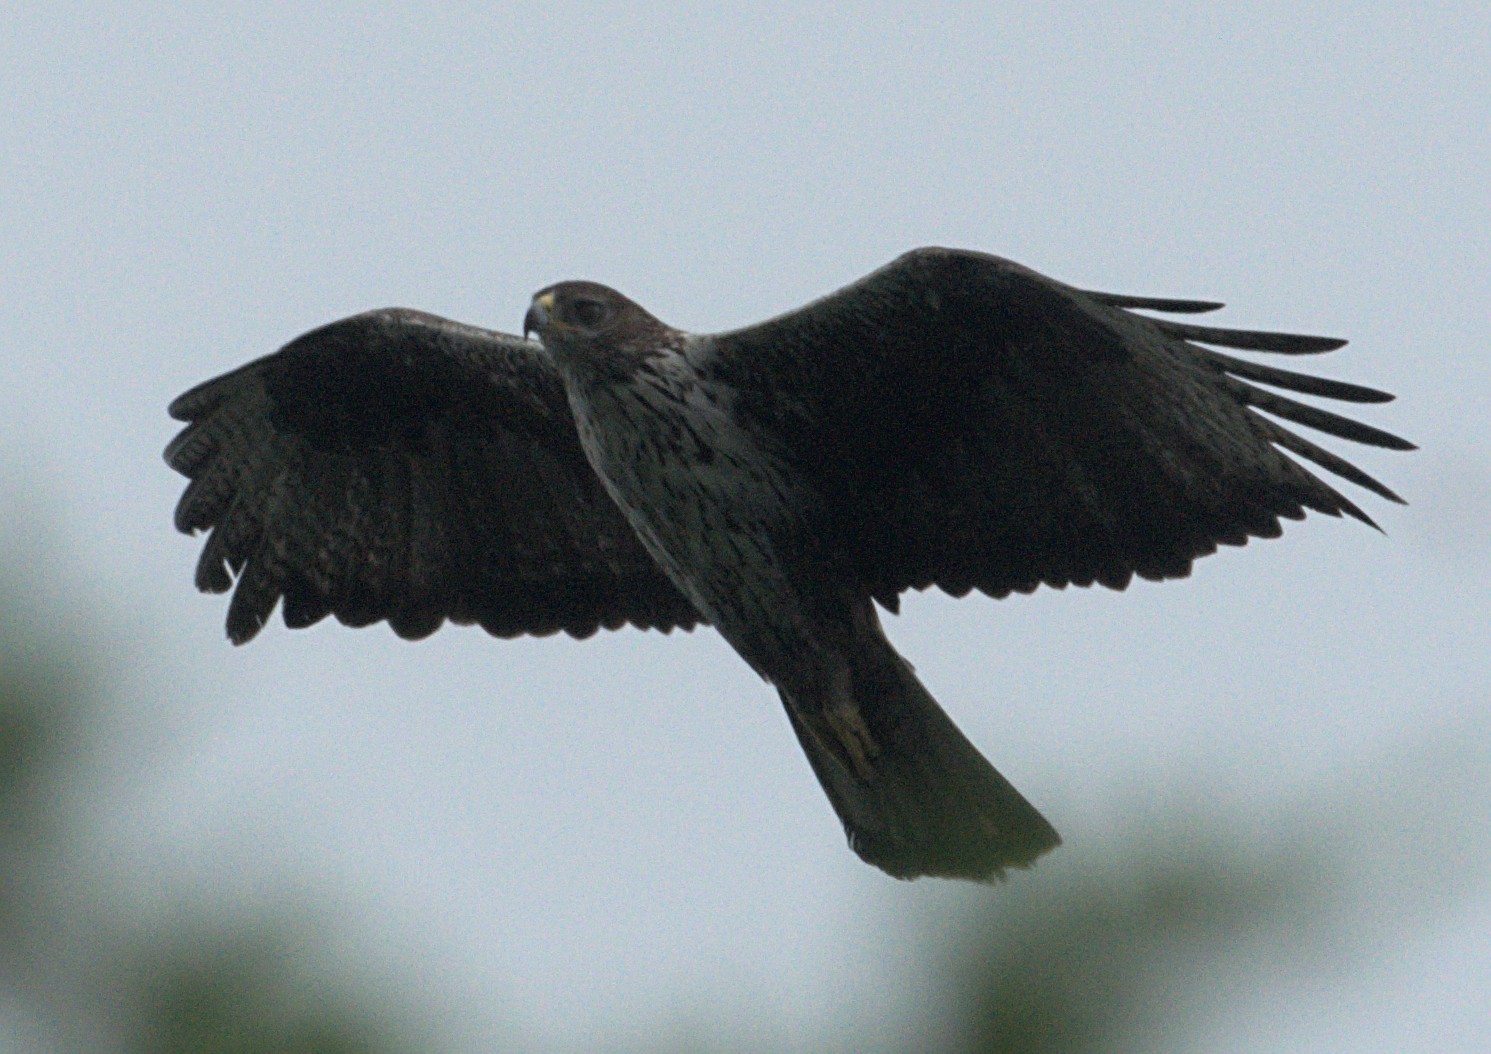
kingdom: Animalia
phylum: Chordata
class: Aves
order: Accipitriformes
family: Accipitridae
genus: Aquila
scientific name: Aquila fasciata
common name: Bonelli's eagle
